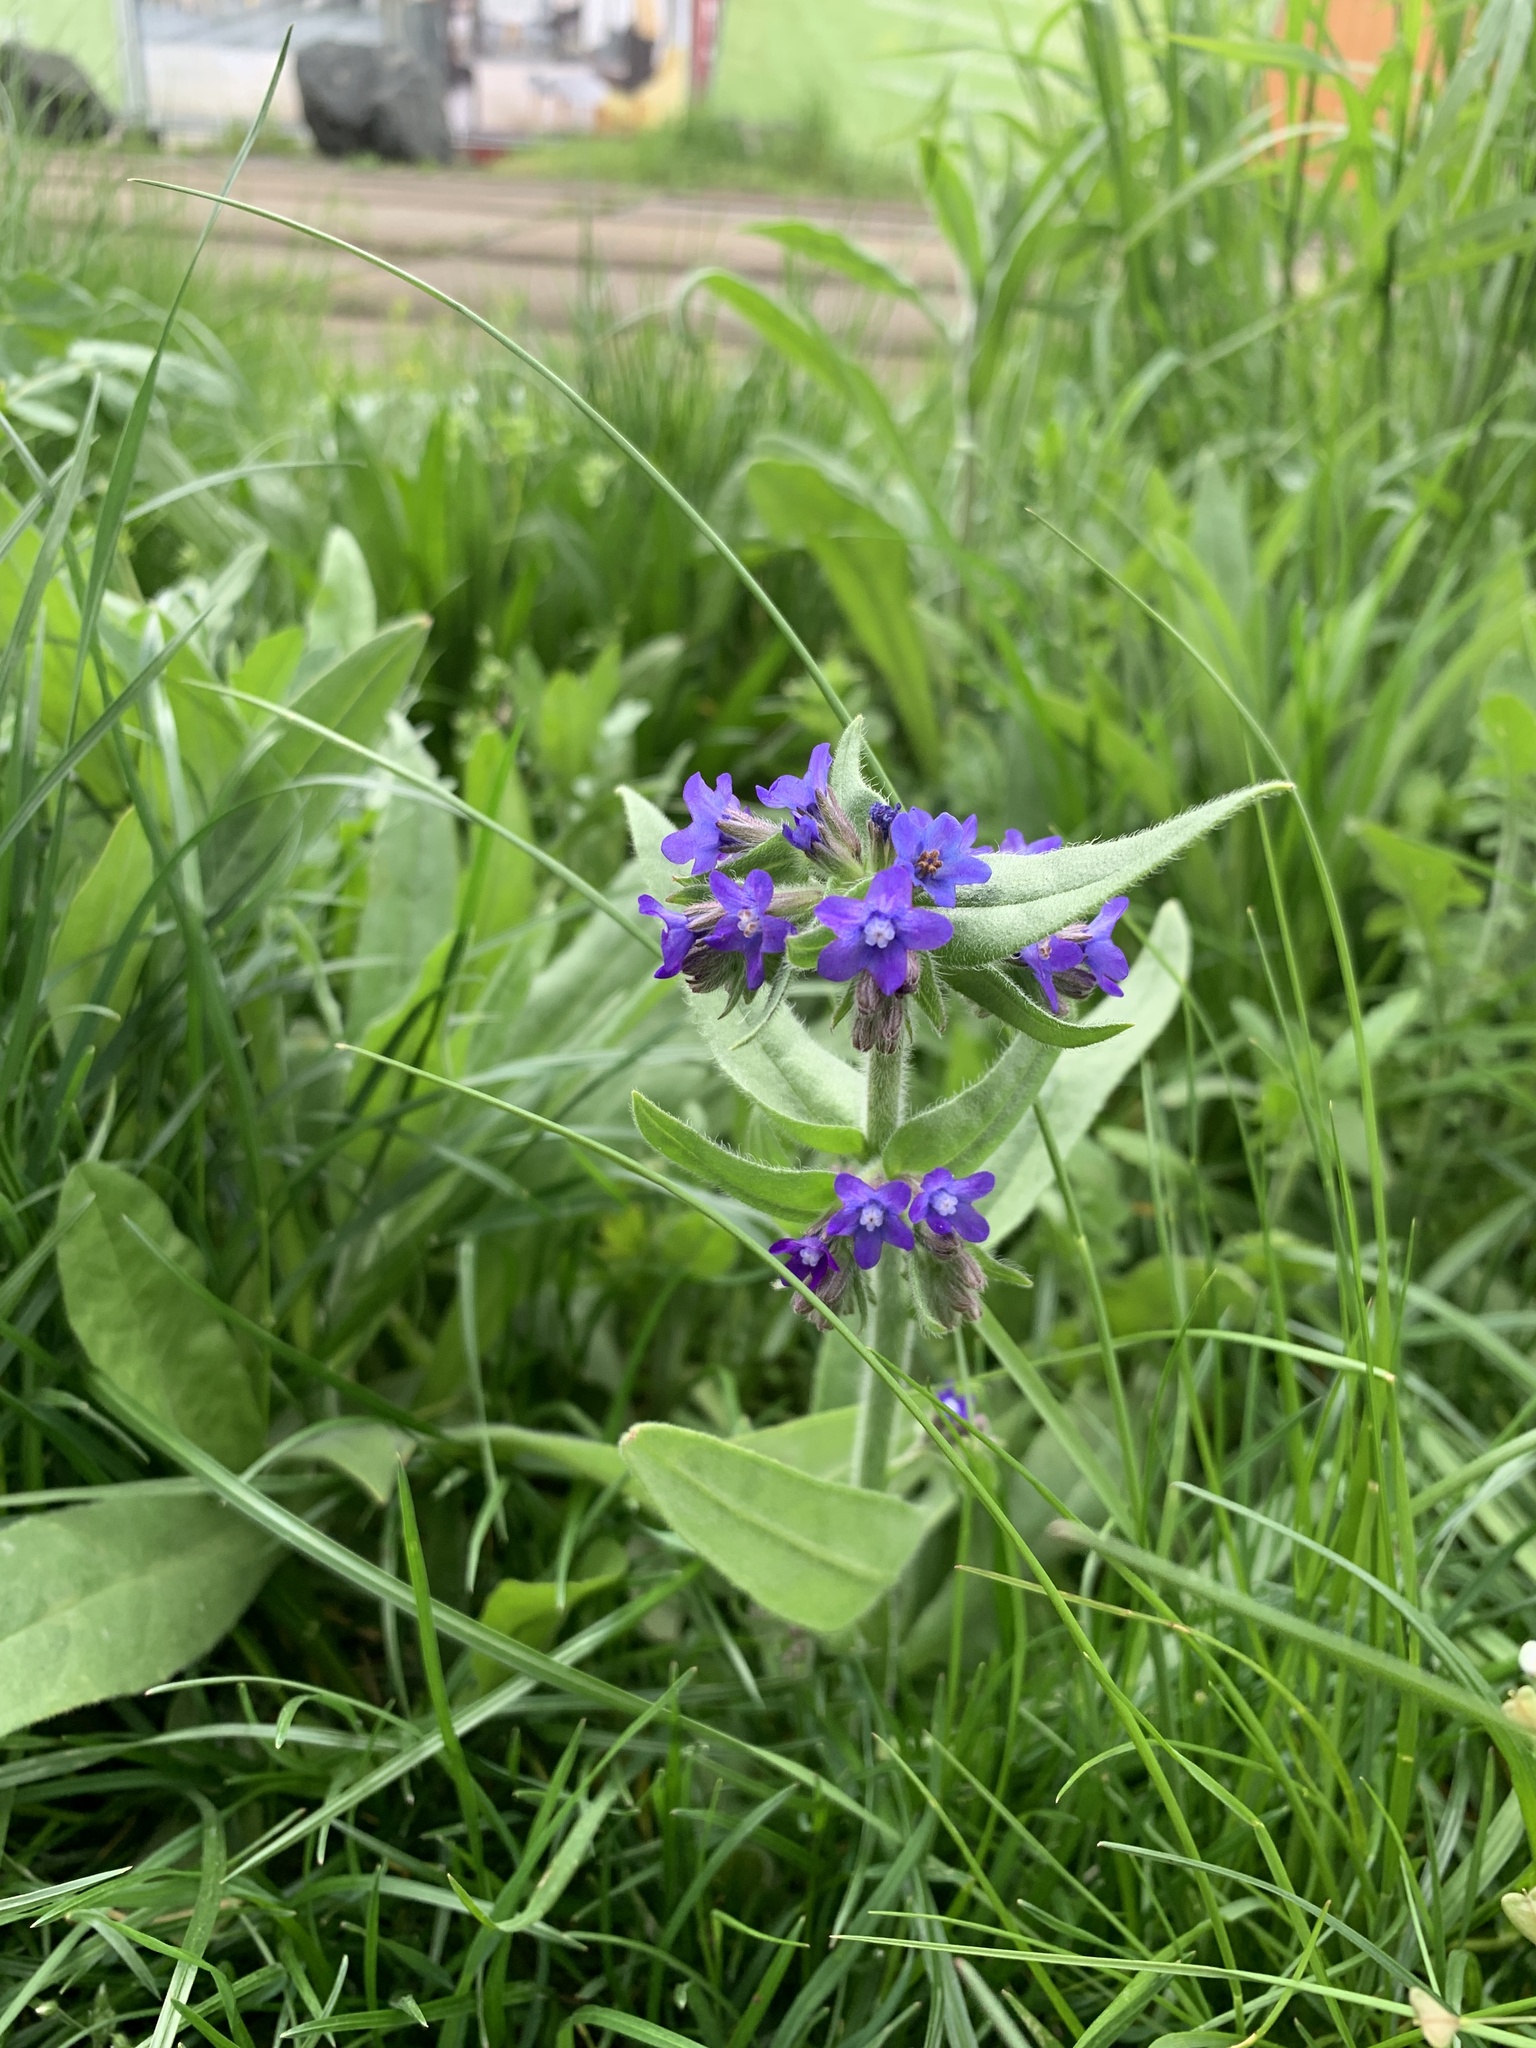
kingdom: Plantae
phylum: Tracheophyta
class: Magnoliopsida
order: Boraginales
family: Boraginaceae
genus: Anchusa
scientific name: Anchusa officinalis
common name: Alkanet
